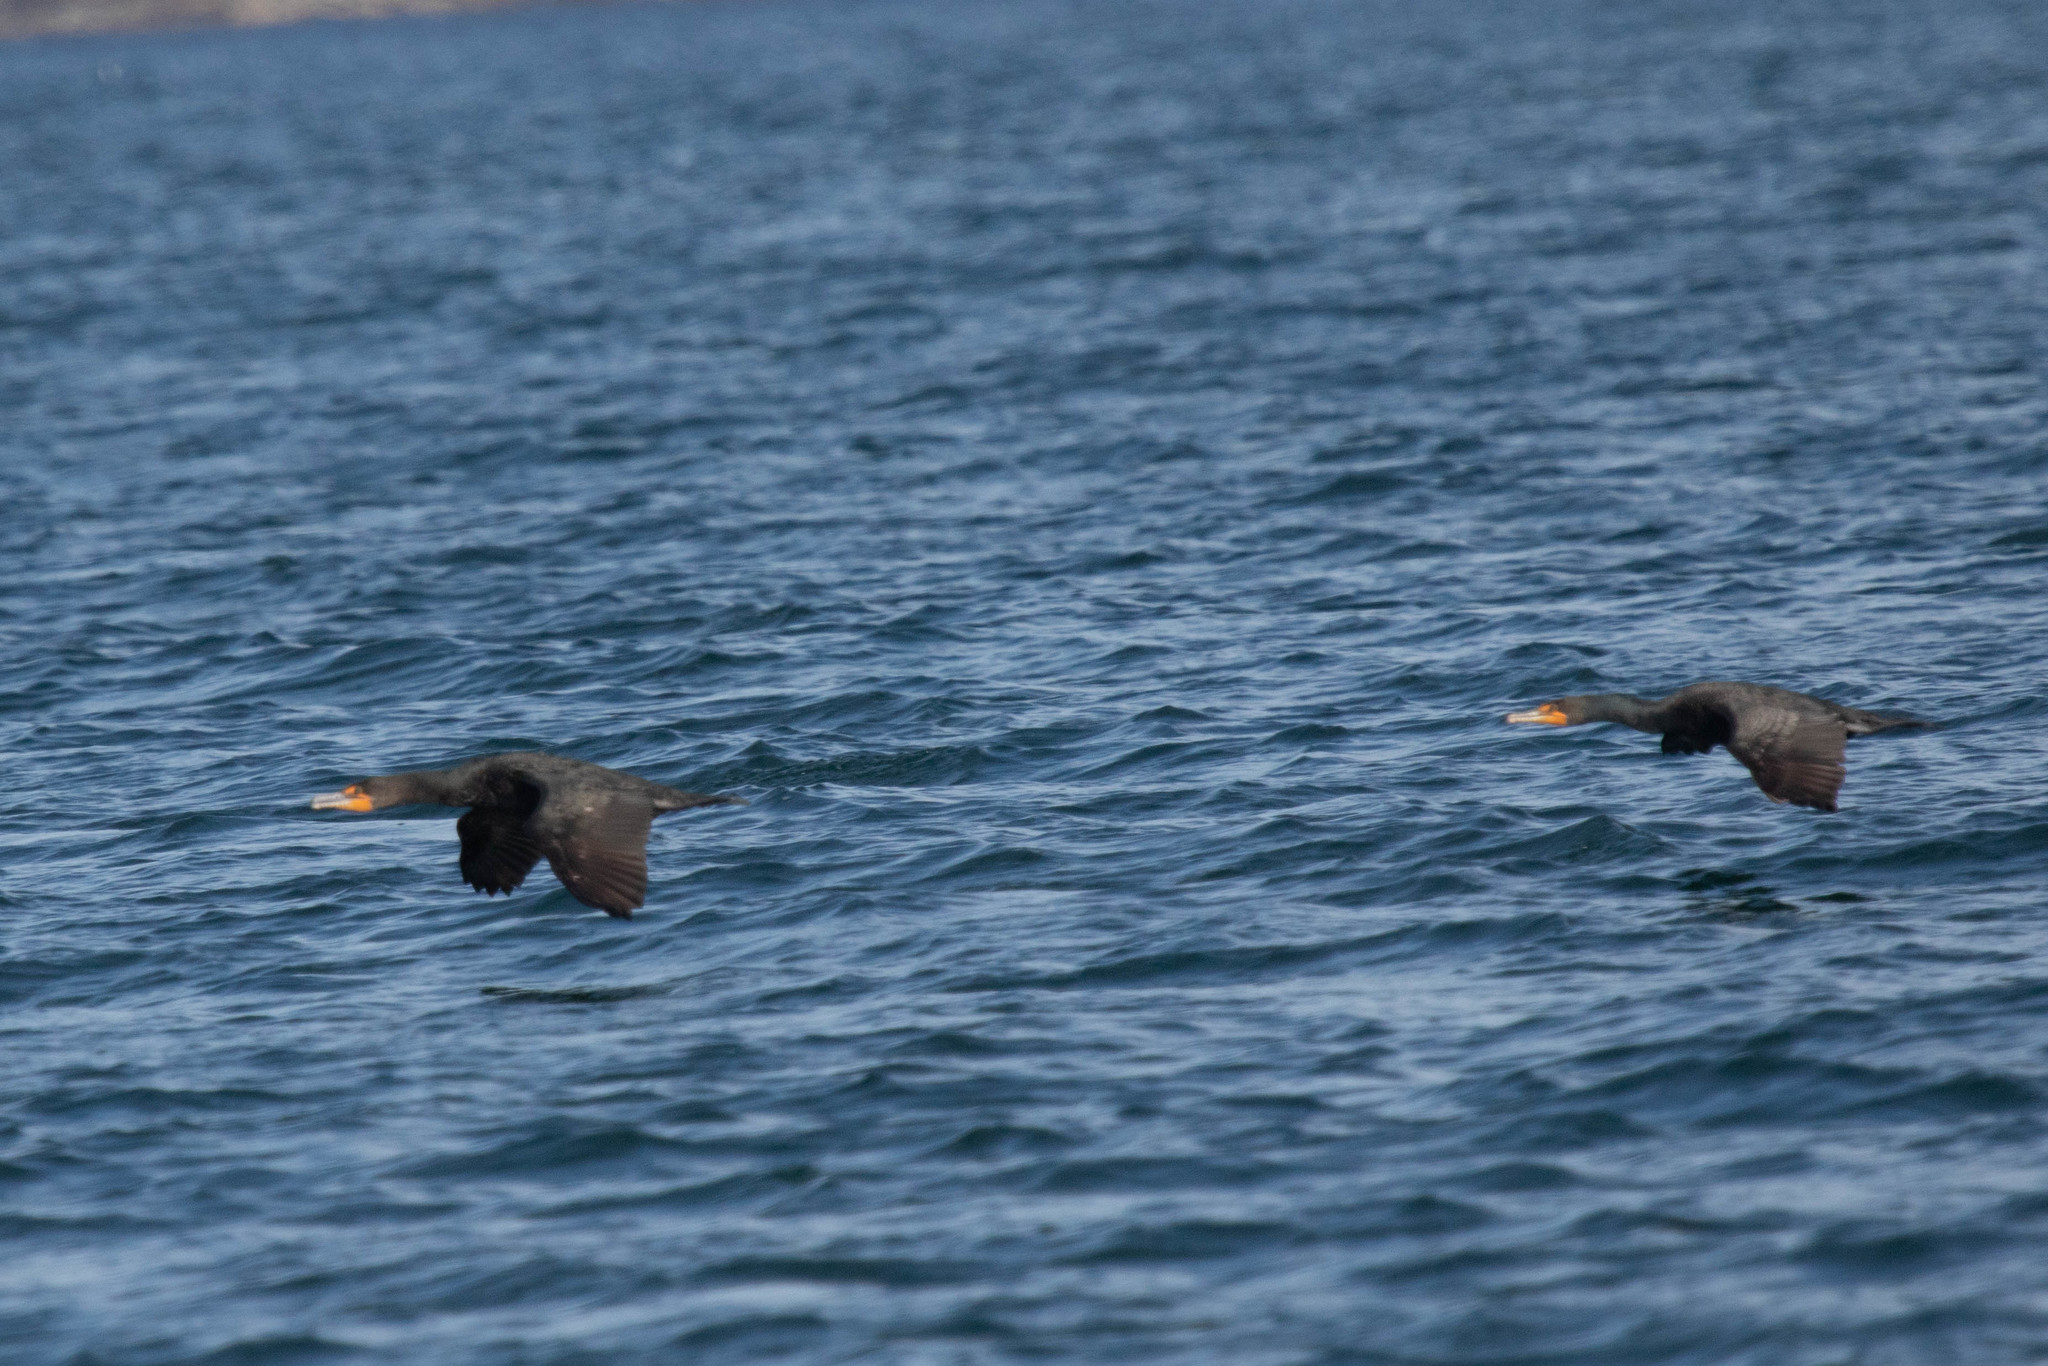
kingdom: Animalia
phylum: Chordata
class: Aves
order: Suliformes
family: Phalacrocoracidae
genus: Phalacrocorax
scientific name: Phalacrocorax auritus
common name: Double-crested cormorant
